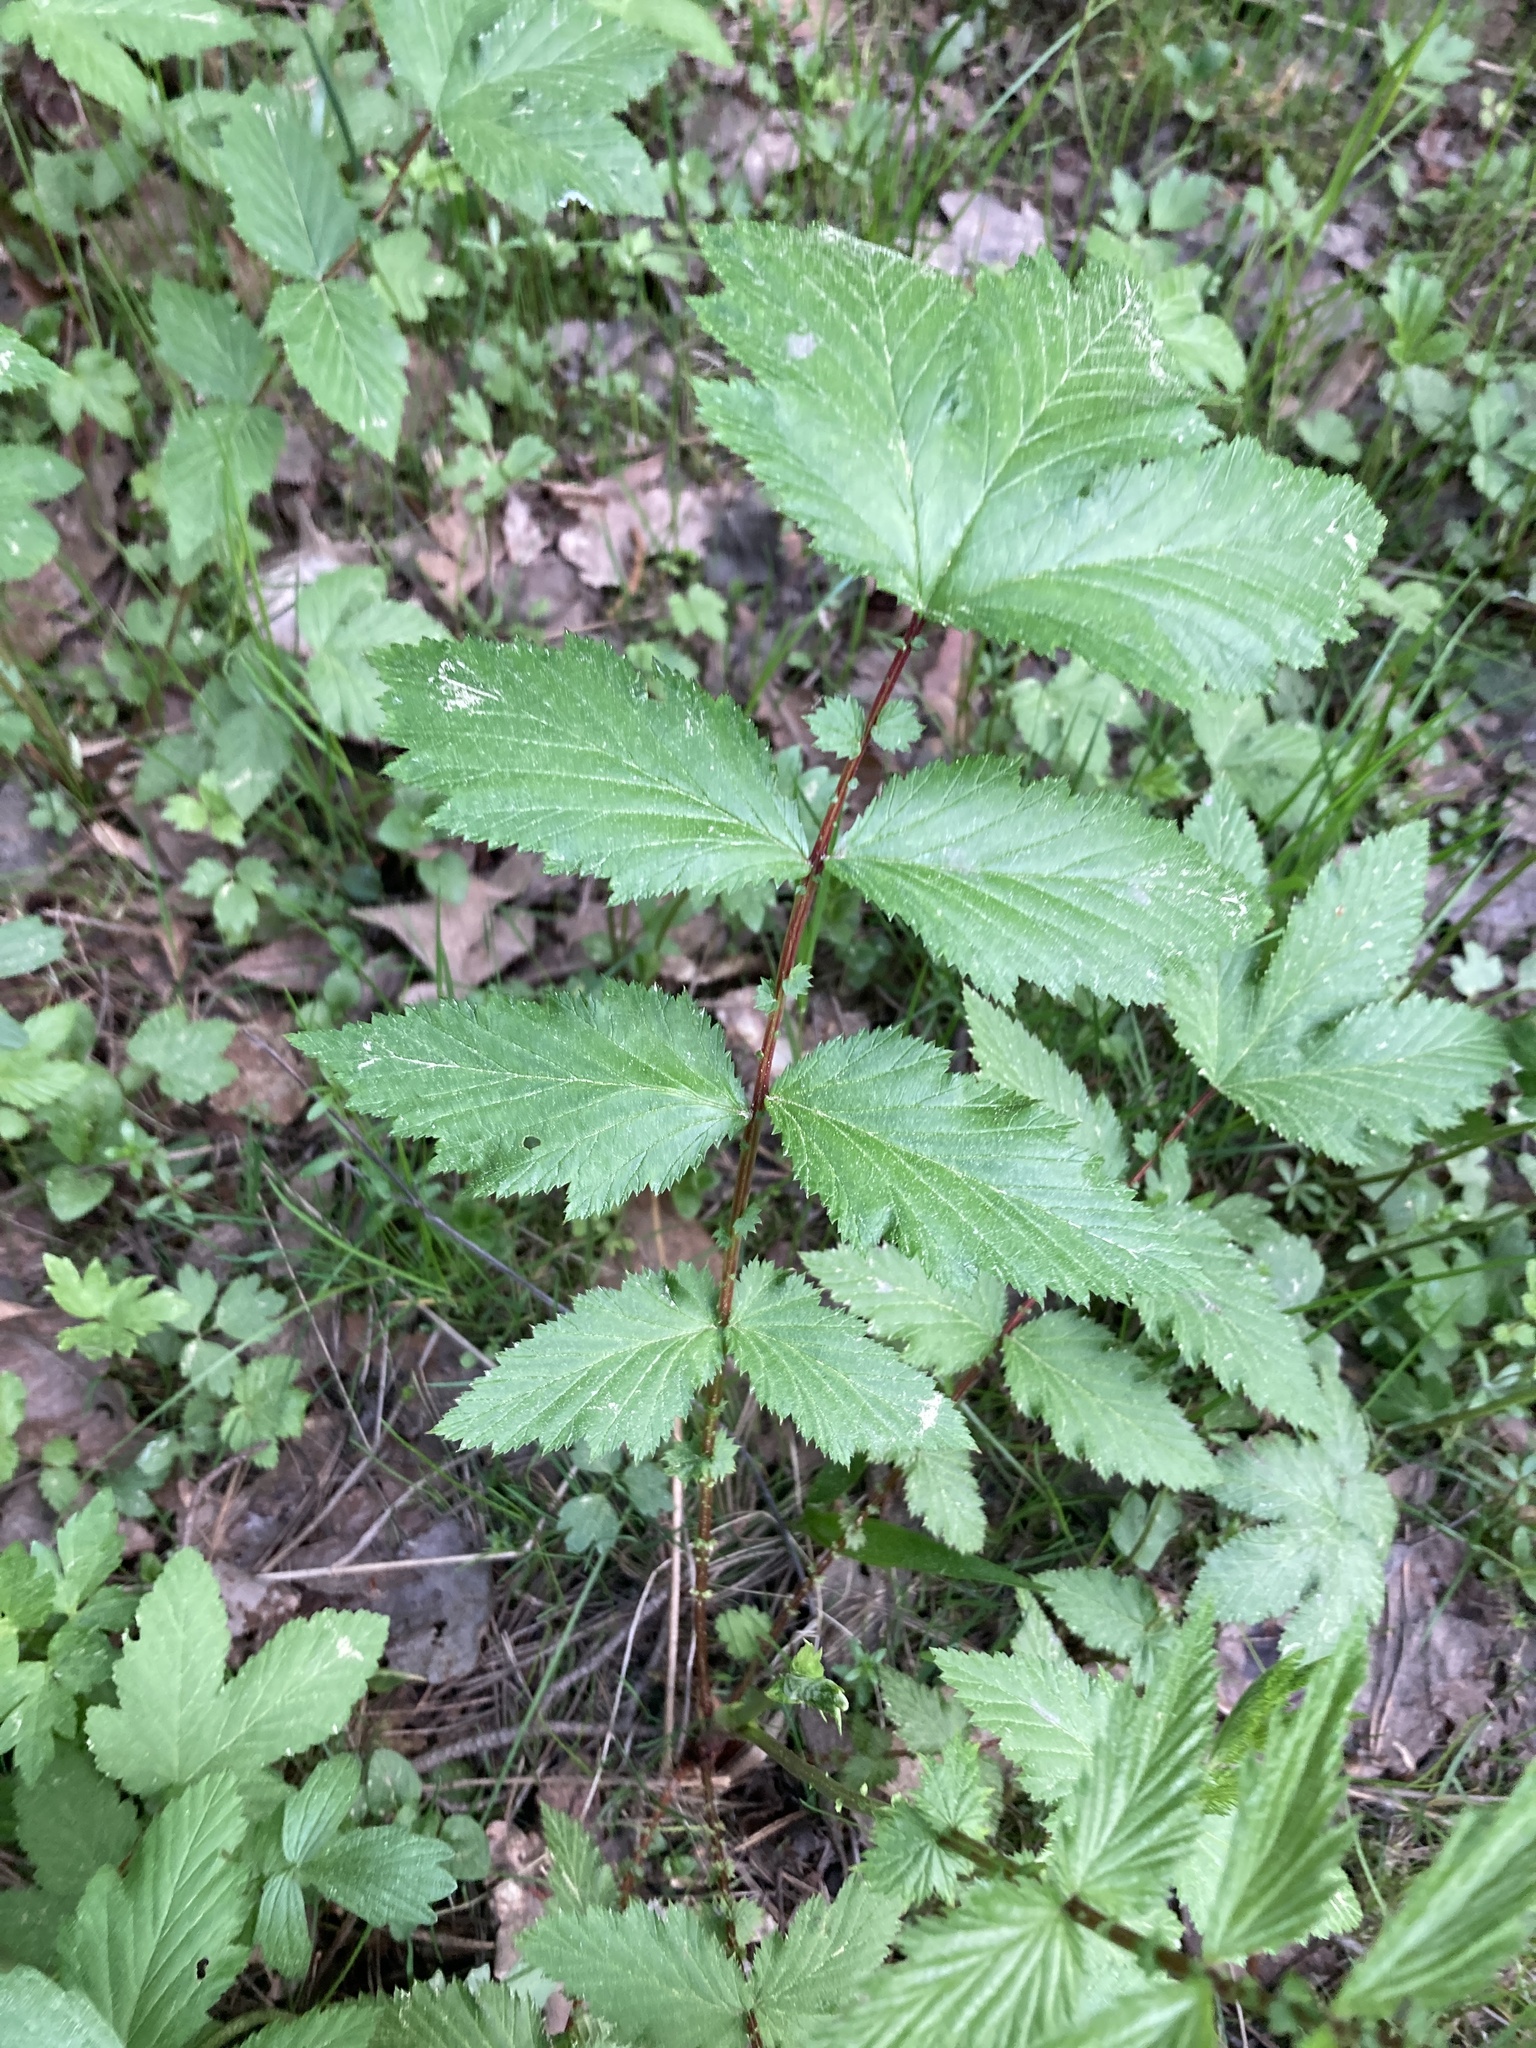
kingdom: Plantae
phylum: Tracheophyta
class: Magnoliopsida
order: Rosales
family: Rosaceae
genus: Filipendula
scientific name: Filipendula ulmaria
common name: Meadowsweet
